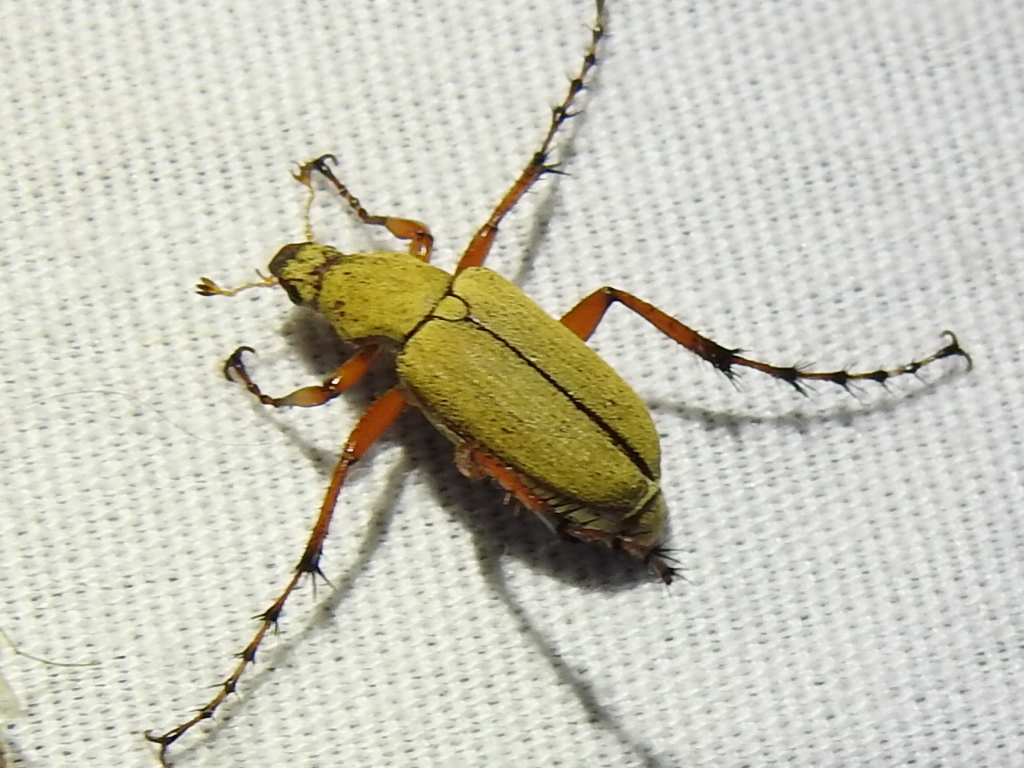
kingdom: Animalia
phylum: Arthropoda
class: Insecta
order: Coleoptera
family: Scarabaeidae
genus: Macrodactylus
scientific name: Macrodactylus subspinosus
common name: American rose chafer
